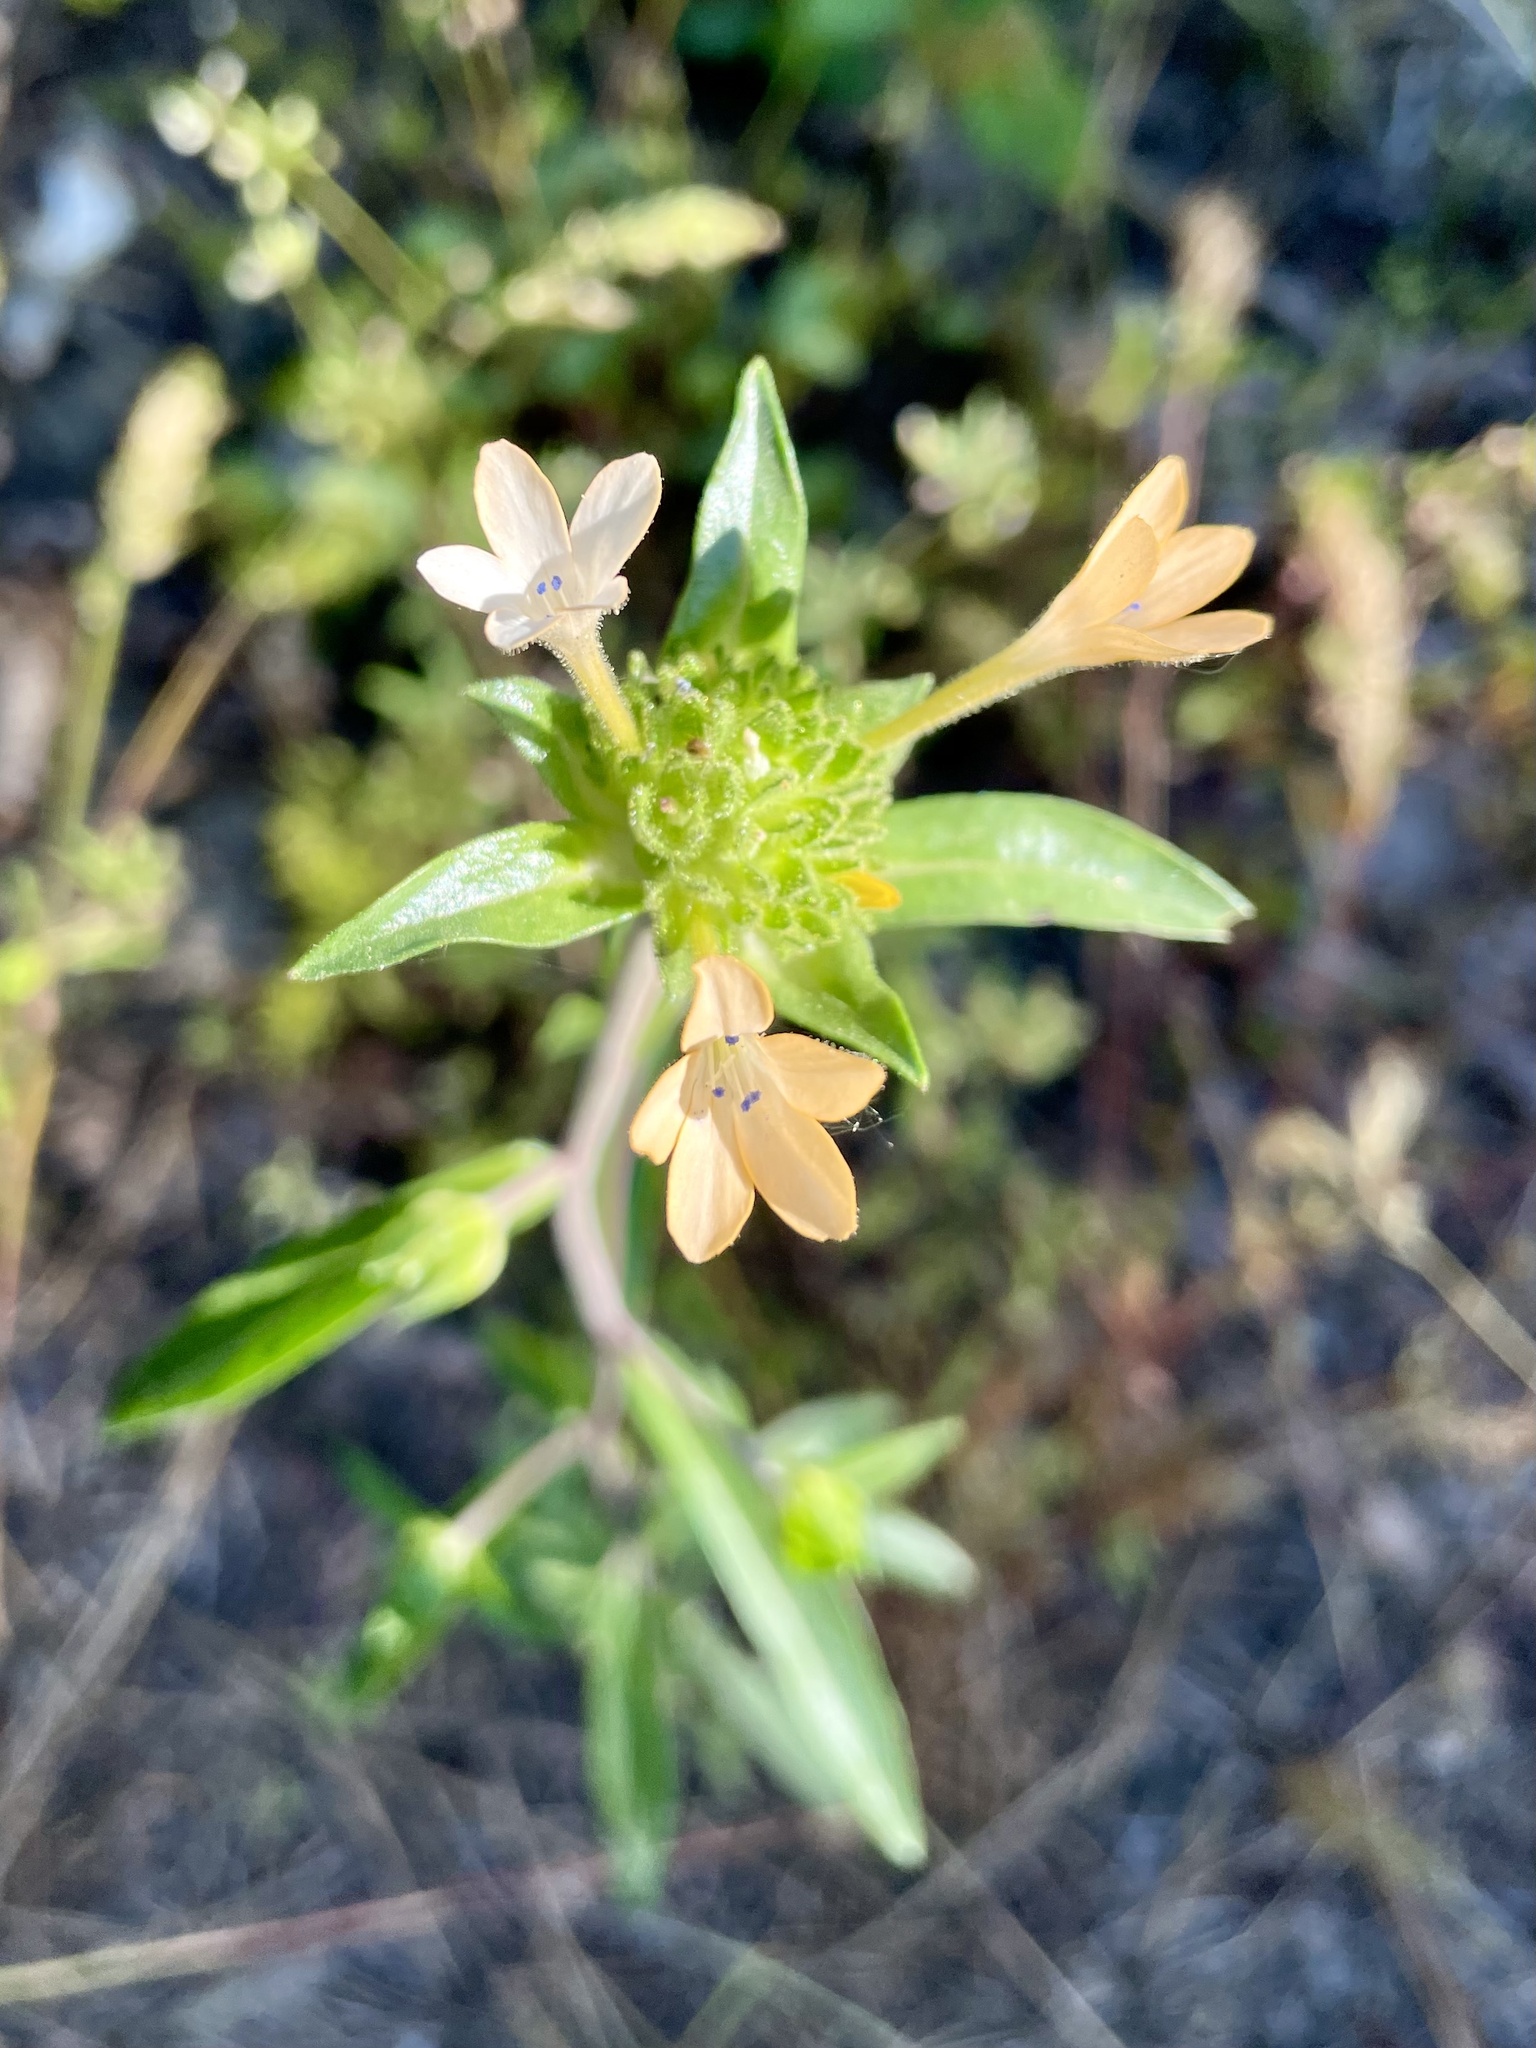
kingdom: Plantae
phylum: Tracheophyta
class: Magnoliopsida
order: Ericales
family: Polemoniaceae
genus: Collomia
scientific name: Collomia grandiflora
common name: California strawflower
